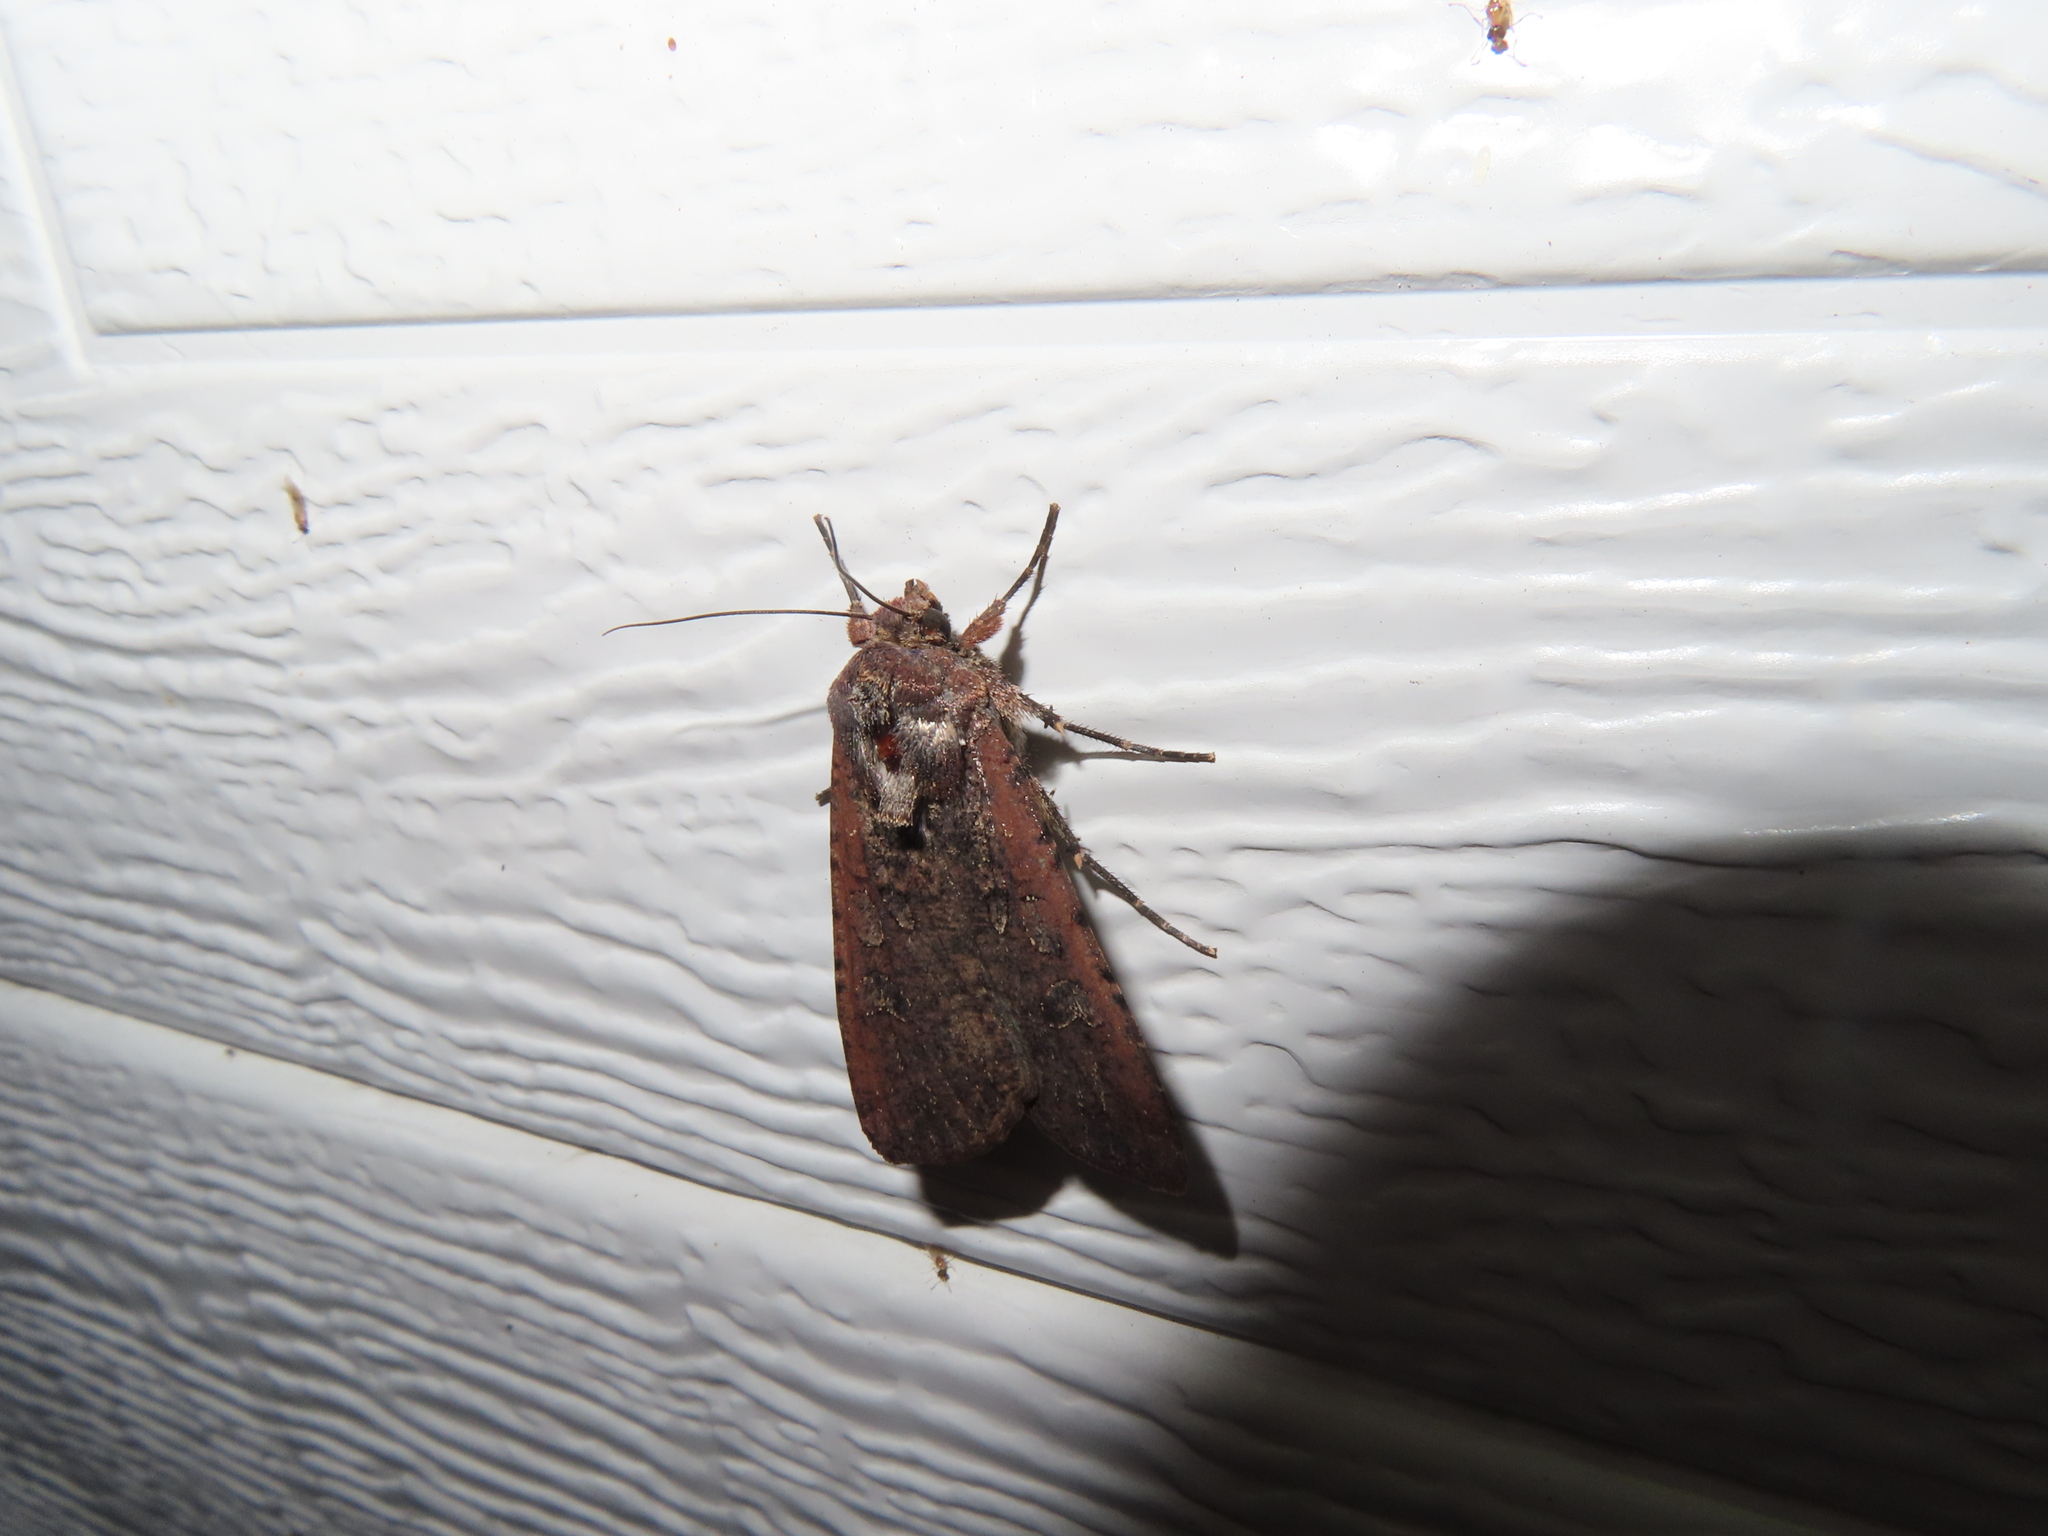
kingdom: Animalia
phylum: Arthropoda
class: Insecta
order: Lepidoptera
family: Noctuidae
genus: Peridroma
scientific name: Peridroma saucia
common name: Pearly underwing
